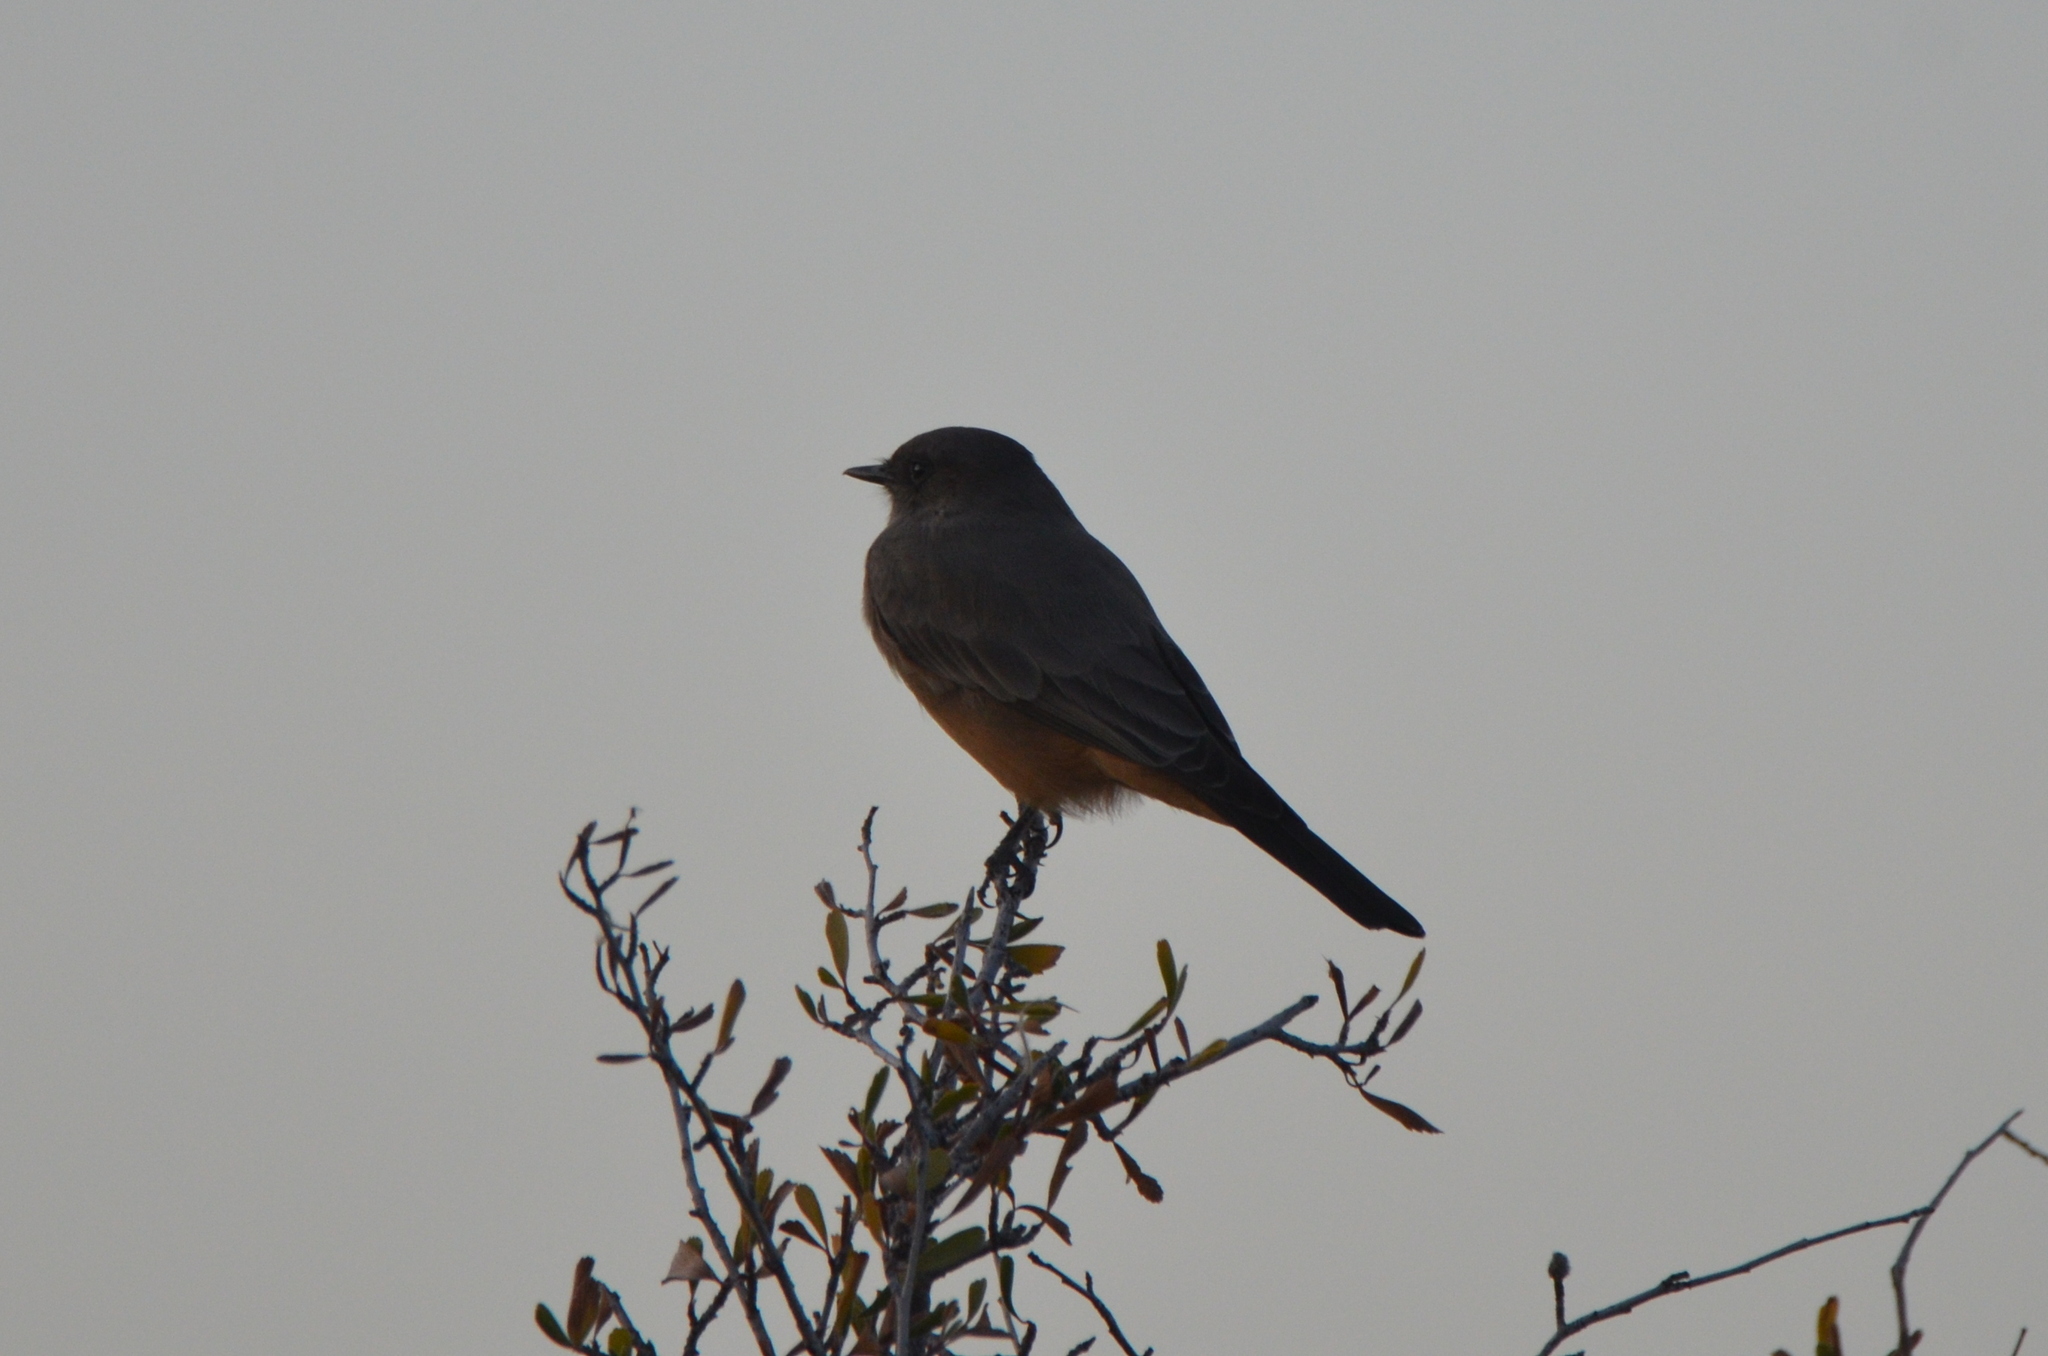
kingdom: Animalia
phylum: Chordata
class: Aves
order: Passeriformes
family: Tyrannidae
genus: Sayornis
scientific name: Sayornis saya
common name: Say's phoebe
